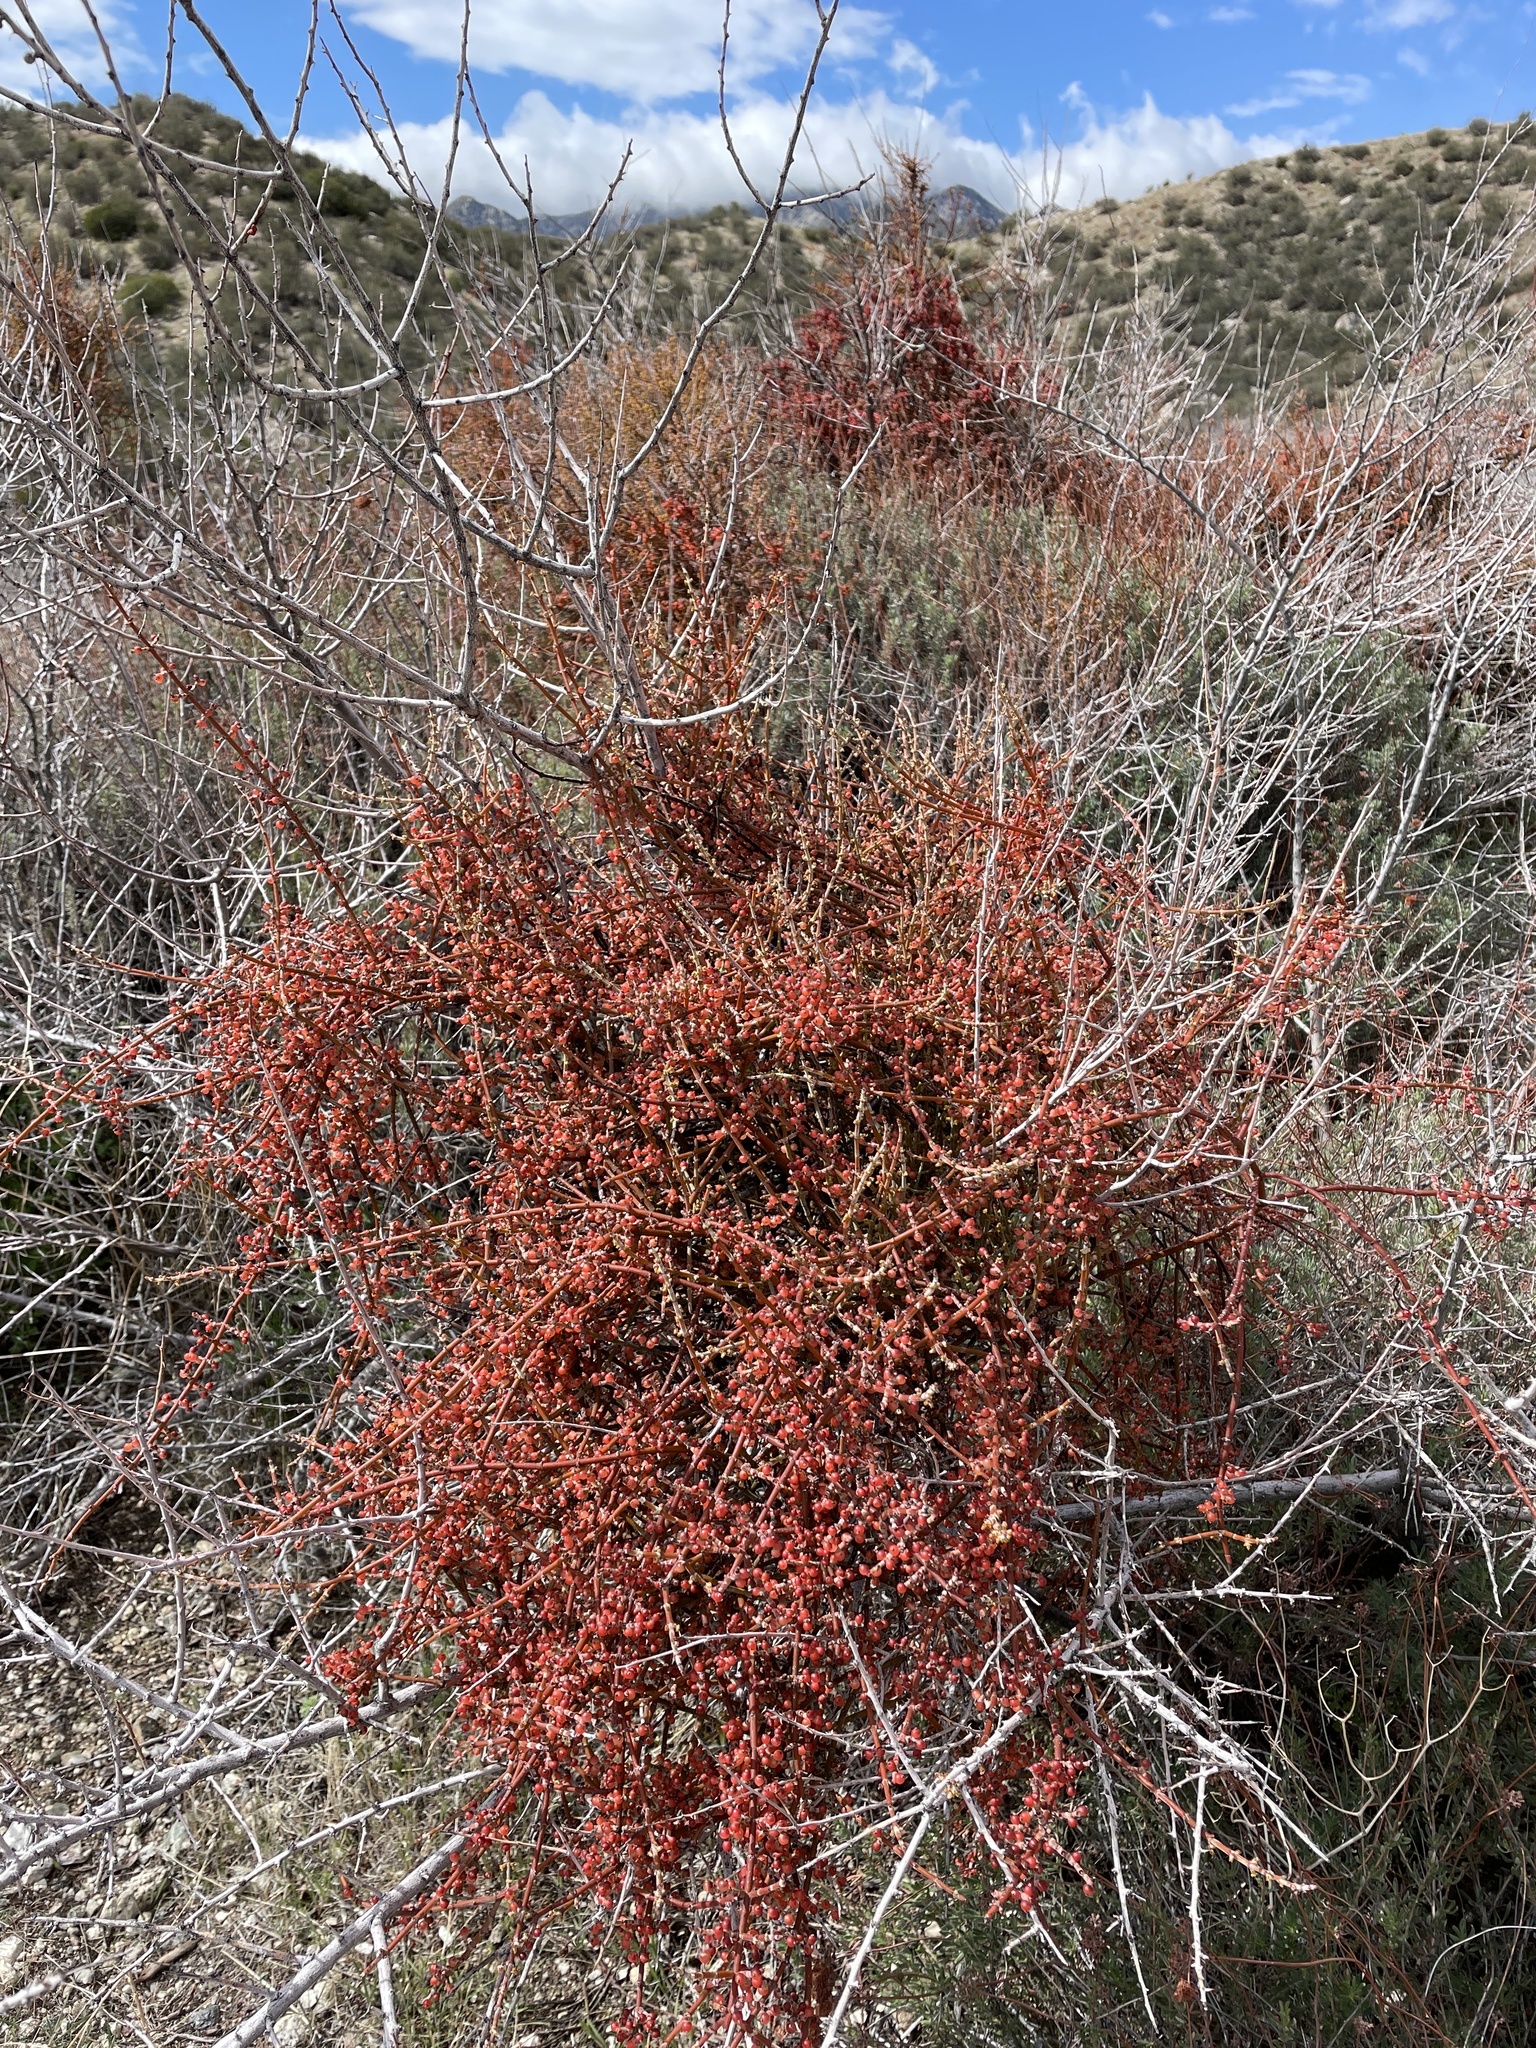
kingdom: Plantae
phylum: Tracheophyta
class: Magnoliopsida
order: Santalales
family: Viscaceae
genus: Phoradendron
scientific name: Phoradendron californicum
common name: Acacia mistletoe
